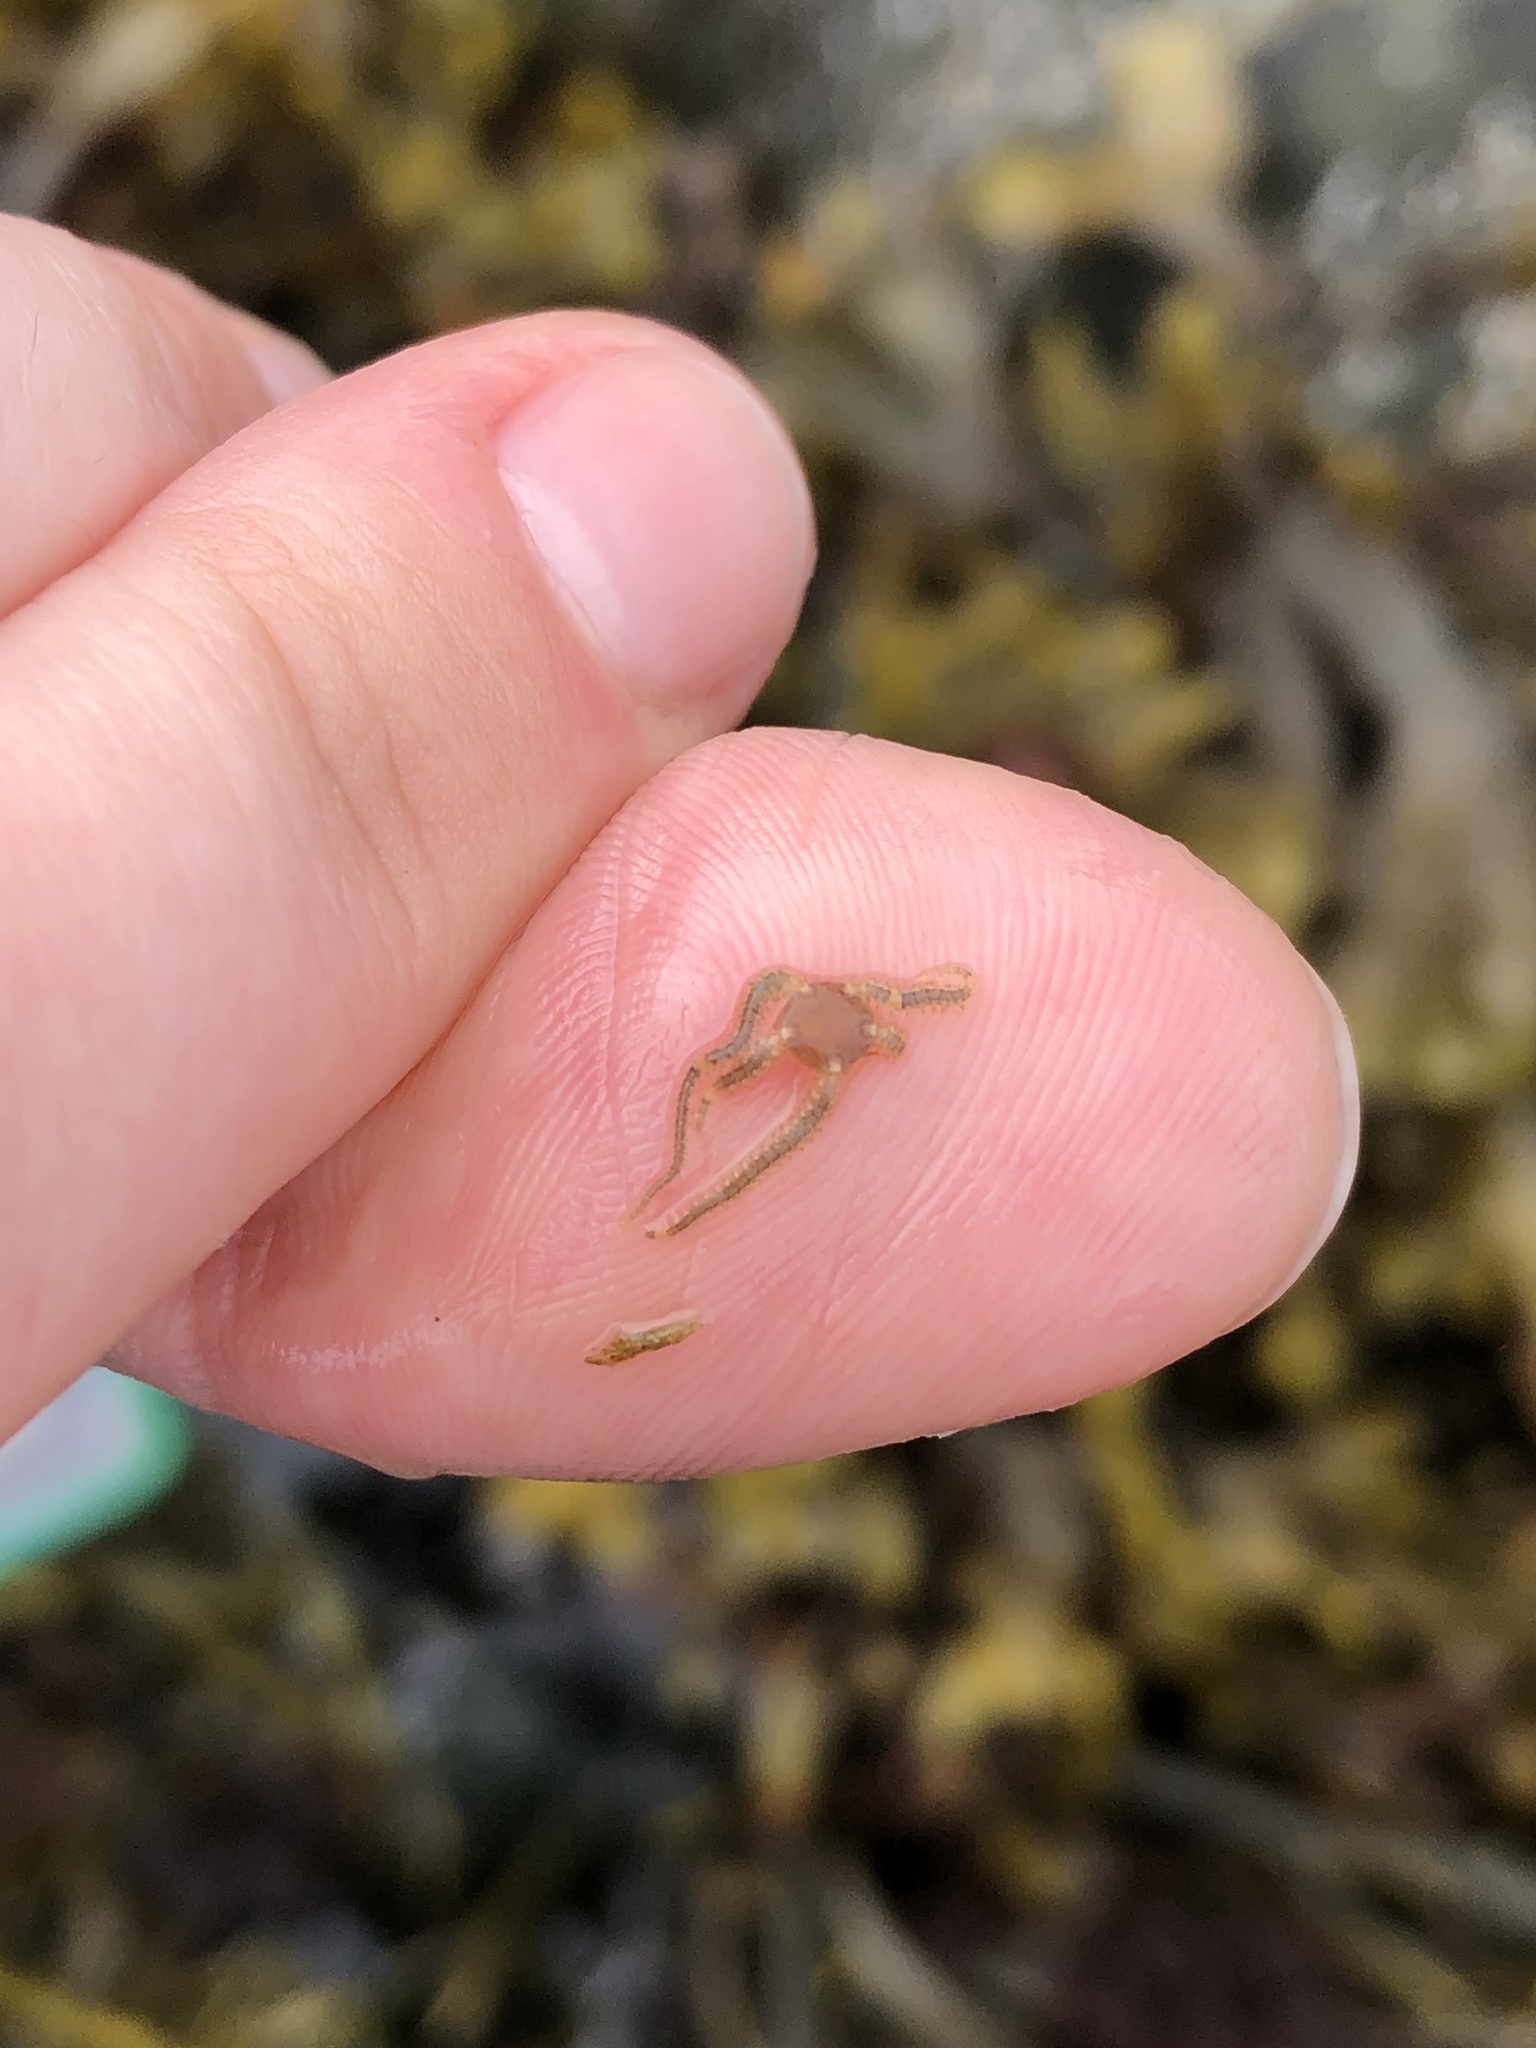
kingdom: Animalia
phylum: Echinodermata
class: Ophiuroidea
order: Amphilepidida
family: Amphiuridae
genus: Amphipholis
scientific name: Amphipholis squamata
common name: Brooding snake star
